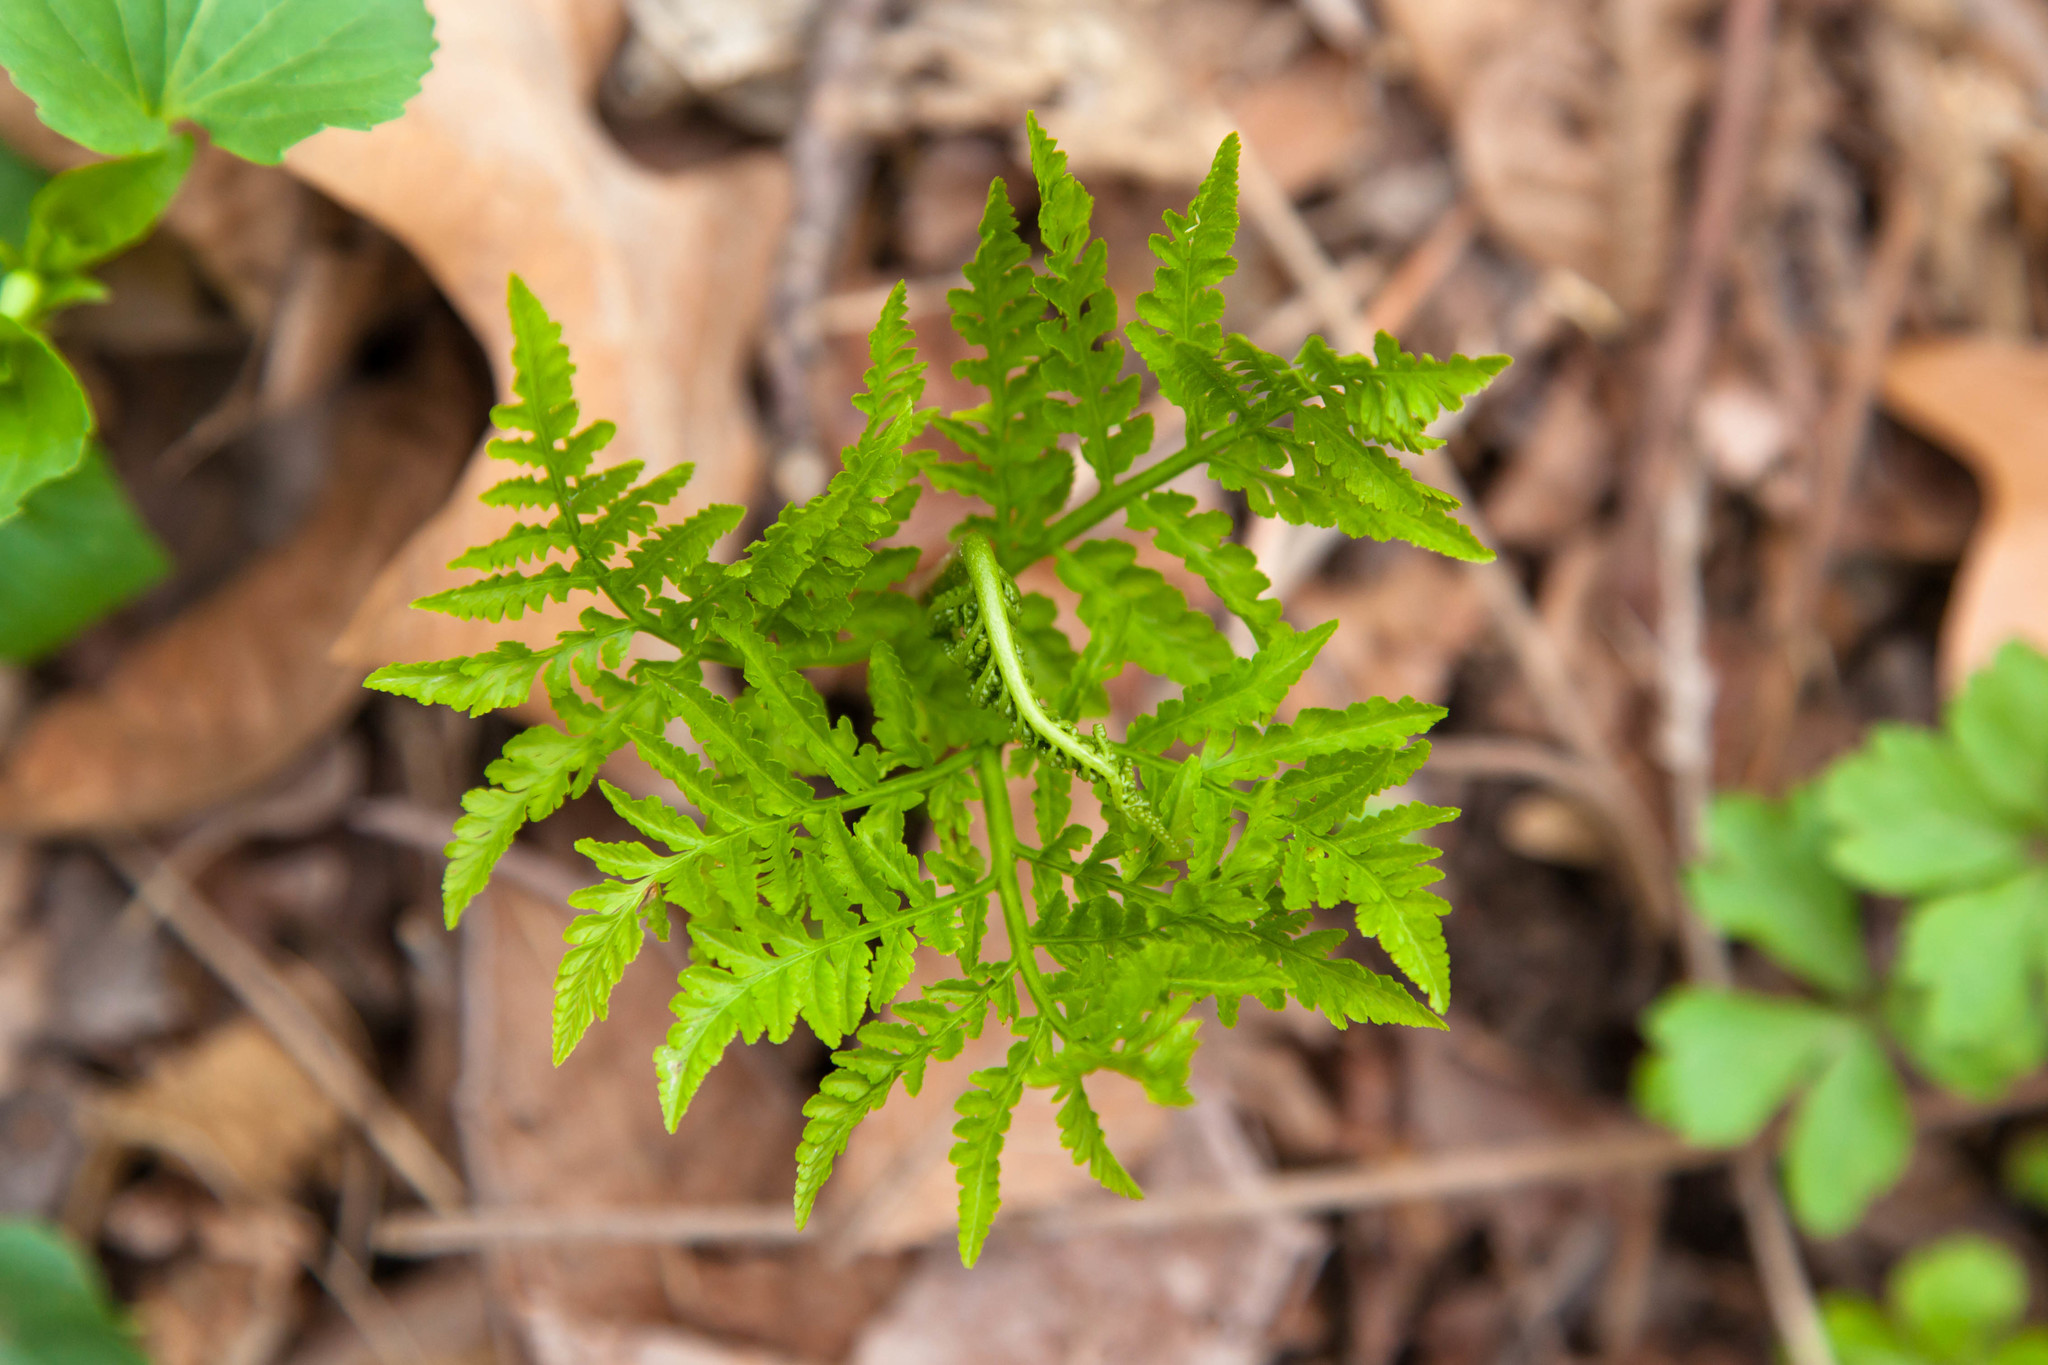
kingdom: Plantae
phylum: Tracheophyta
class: Polypodiopsida
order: Ophioglossales
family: Ophioglossaceae
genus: Botrypus
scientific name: Botrypus virginianus
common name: Common grapefern
